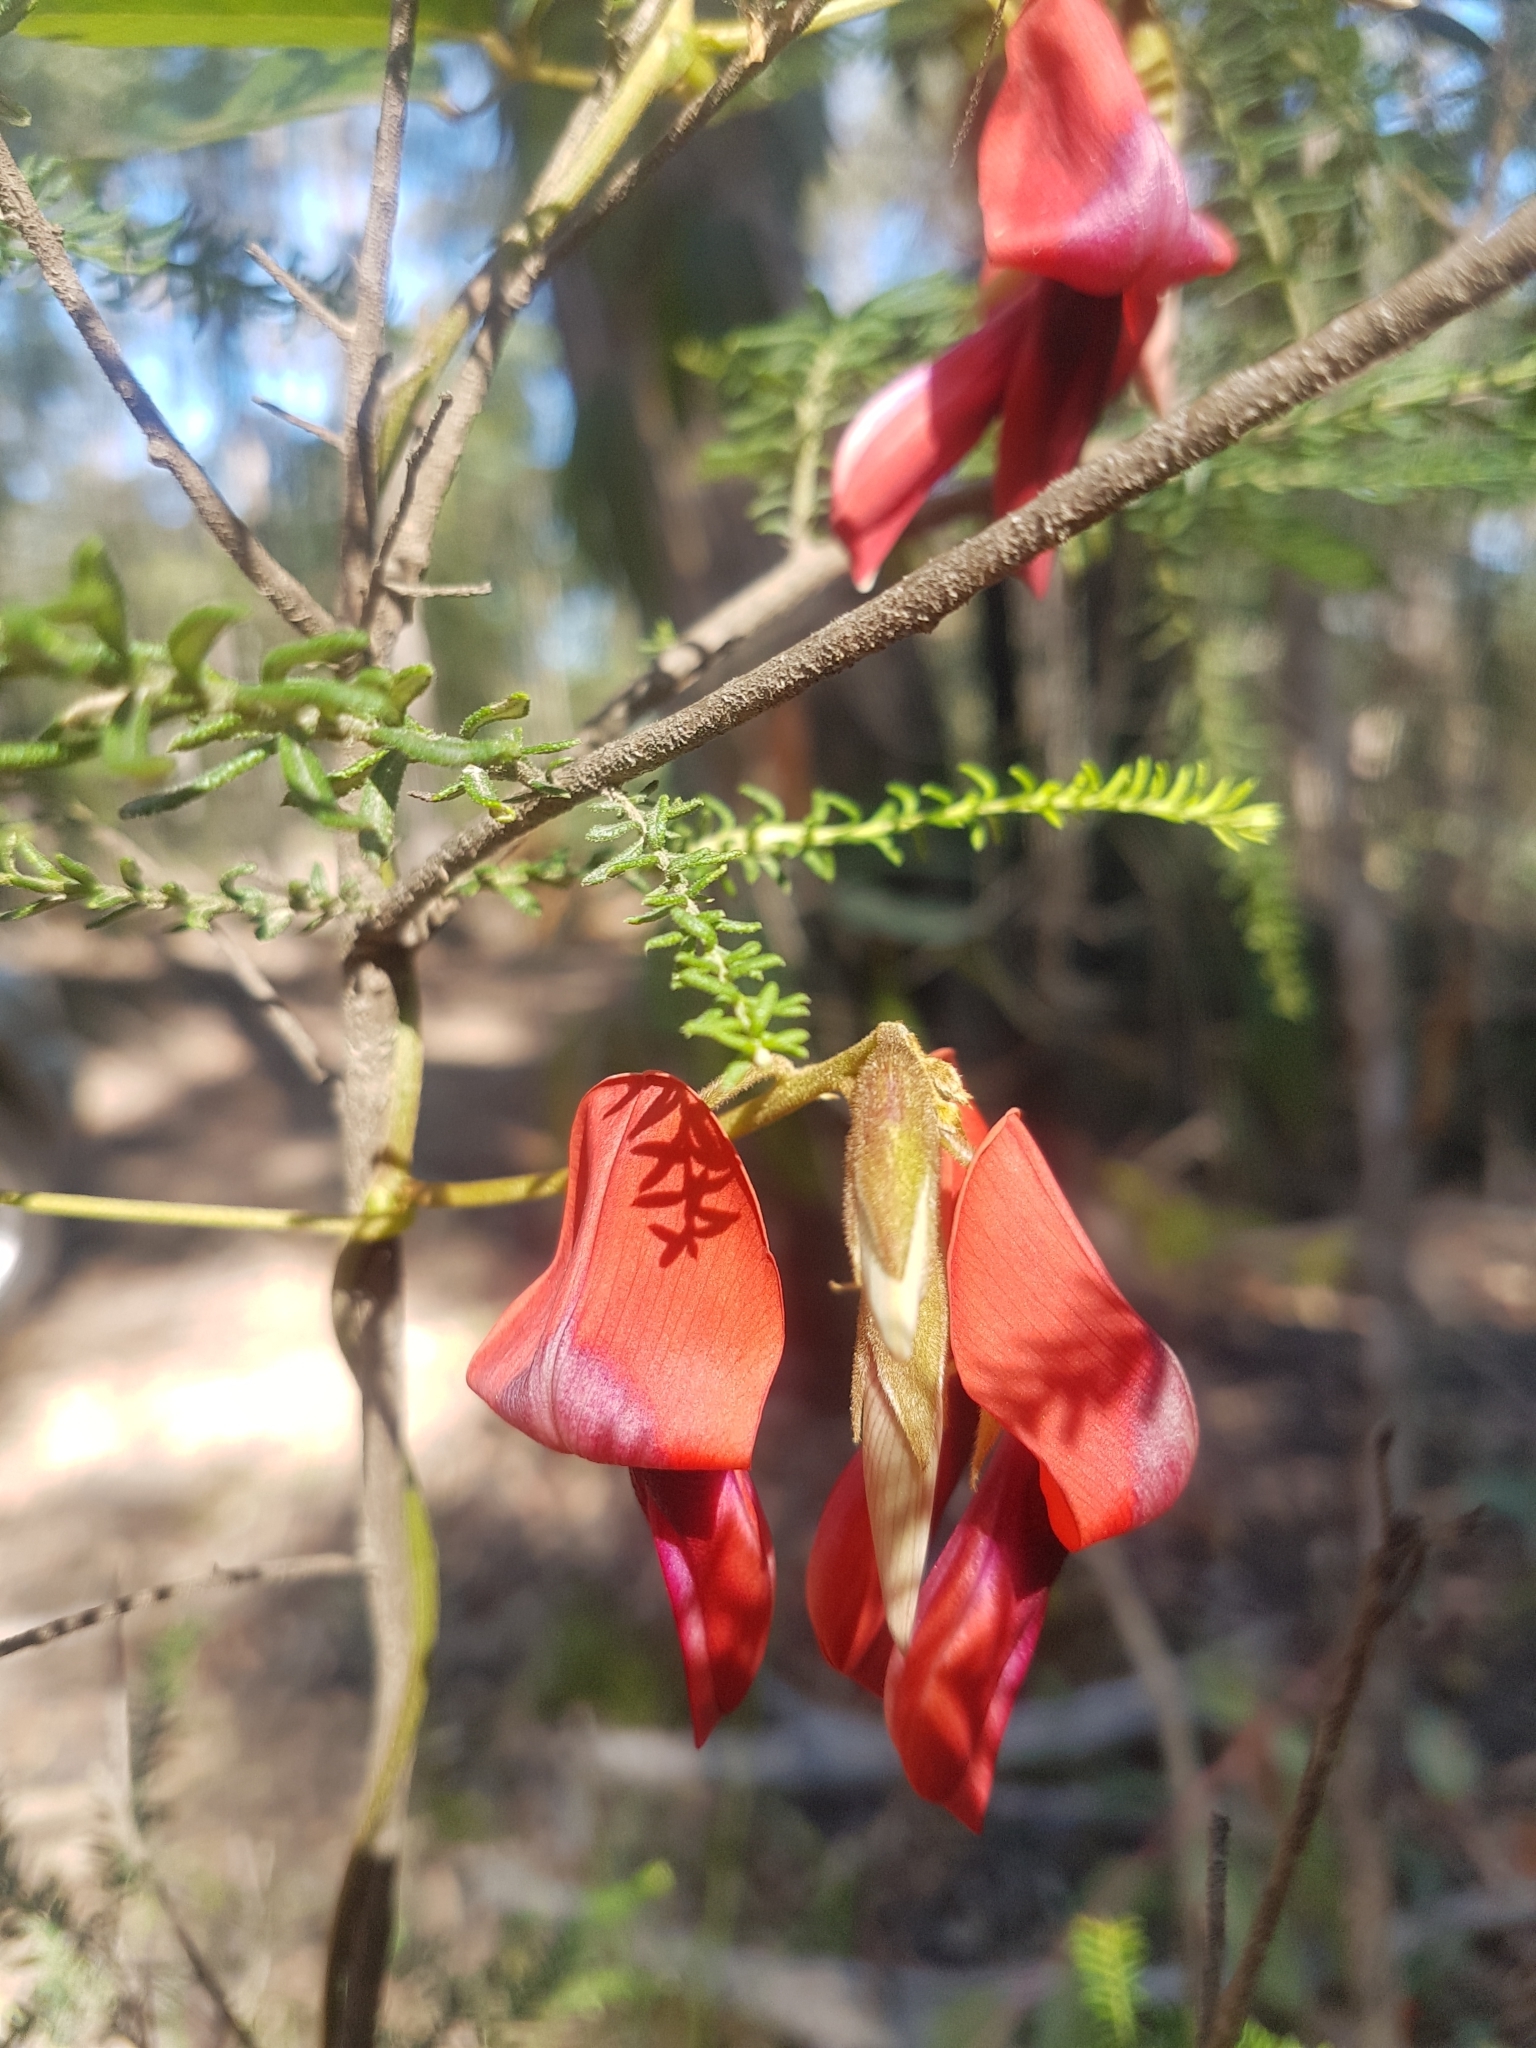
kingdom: Plantae
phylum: Tracheophyta
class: Magnoliopsida
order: Fabales
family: Fabaceae
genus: Kennedia
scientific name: Kennedia rubicunda
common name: Red kennedy-pea
